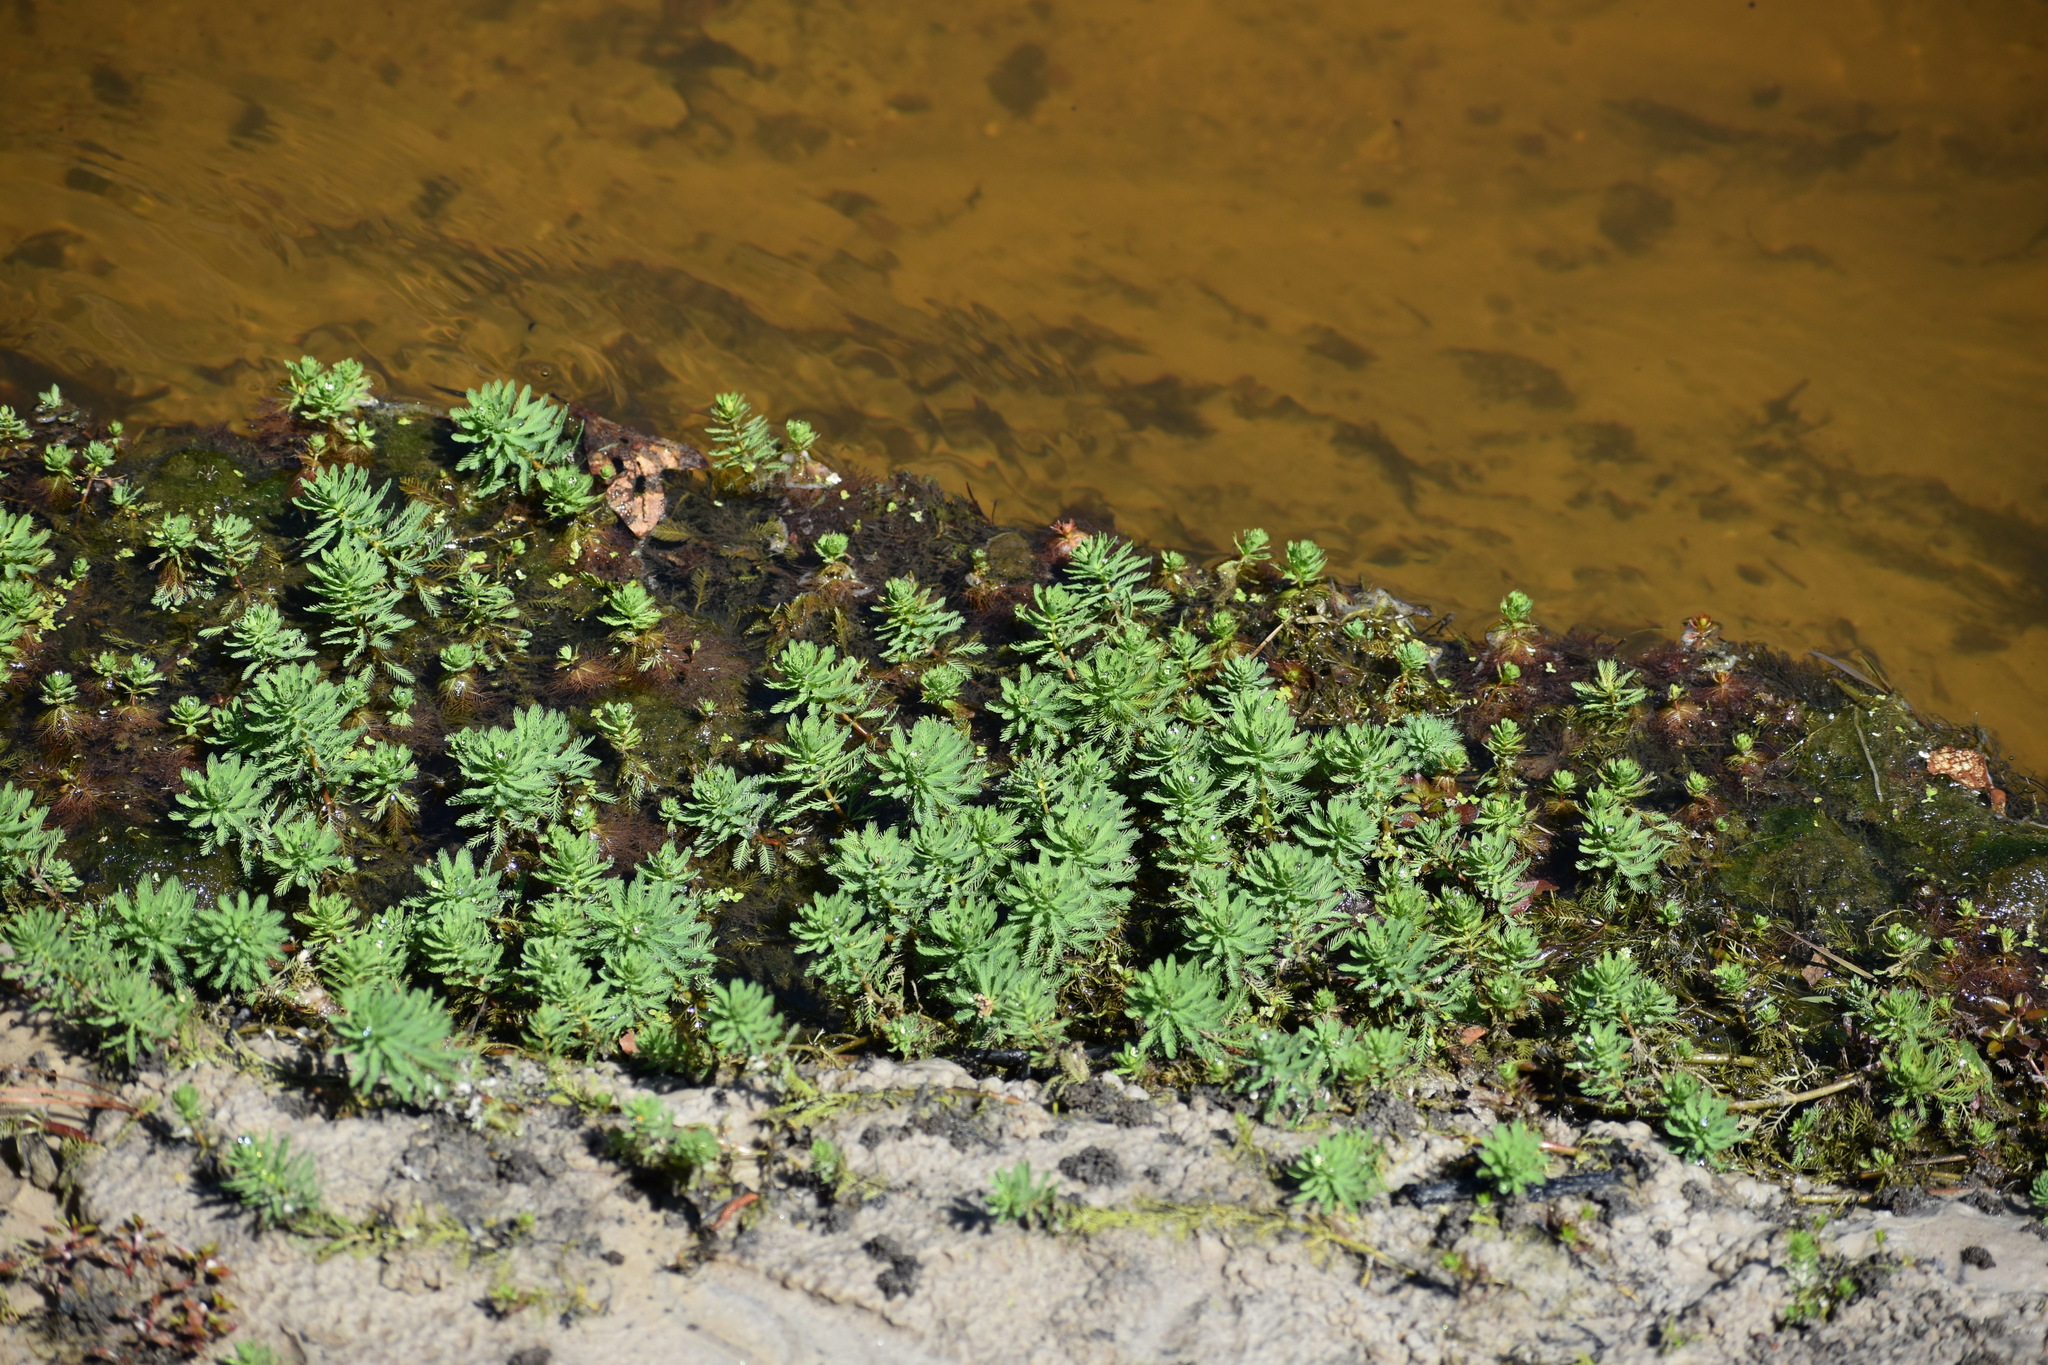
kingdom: Plantae
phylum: Tracheophyta
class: Magnoliopsida
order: Saxifragales
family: Haloragaceae
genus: Myriophyllum
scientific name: Myriophyllum aquaticum
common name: Parrot's feather
